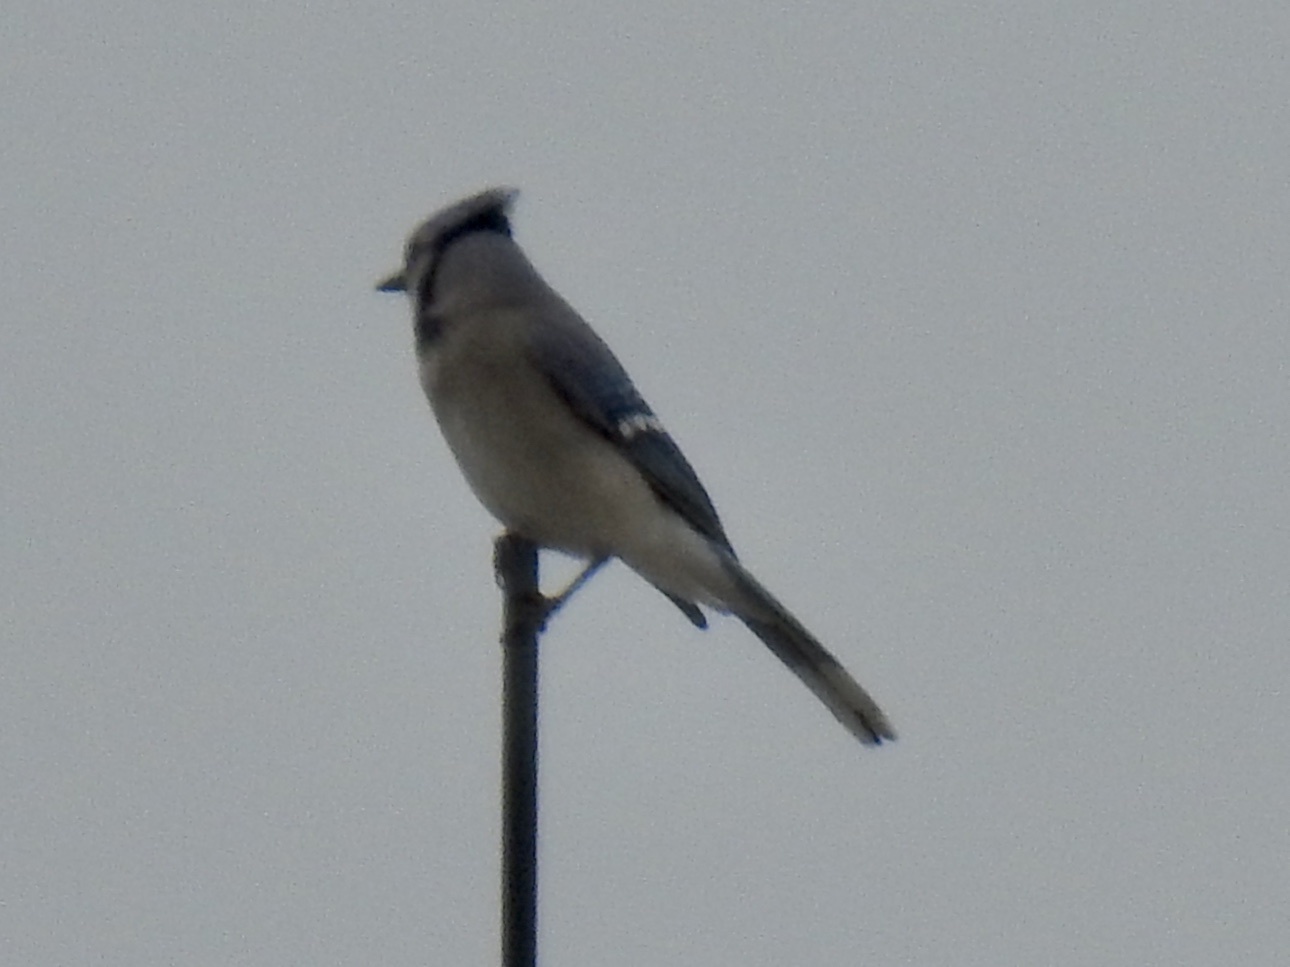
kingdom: Animalia
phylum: Chordata
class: Aves
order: Passeriformes
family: Corvidae
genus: Cyanocitta
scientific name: Cyanocitta cristata
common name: Blue jay
